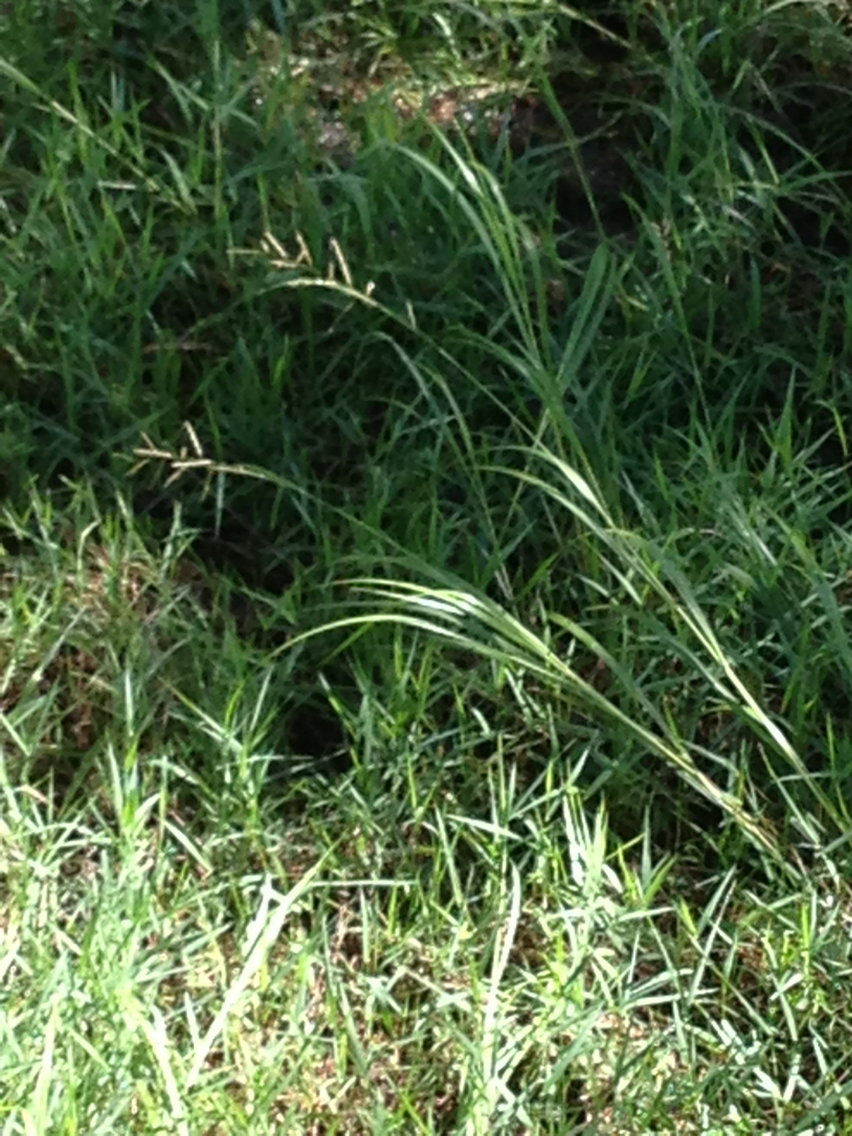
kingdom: Plantae
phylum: Tracheophyta
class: Liliopsida
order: Poales
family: Poaceae
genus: Sporobolus
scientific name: Sporobolus michauxianus
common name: Freshwater cordgrass
